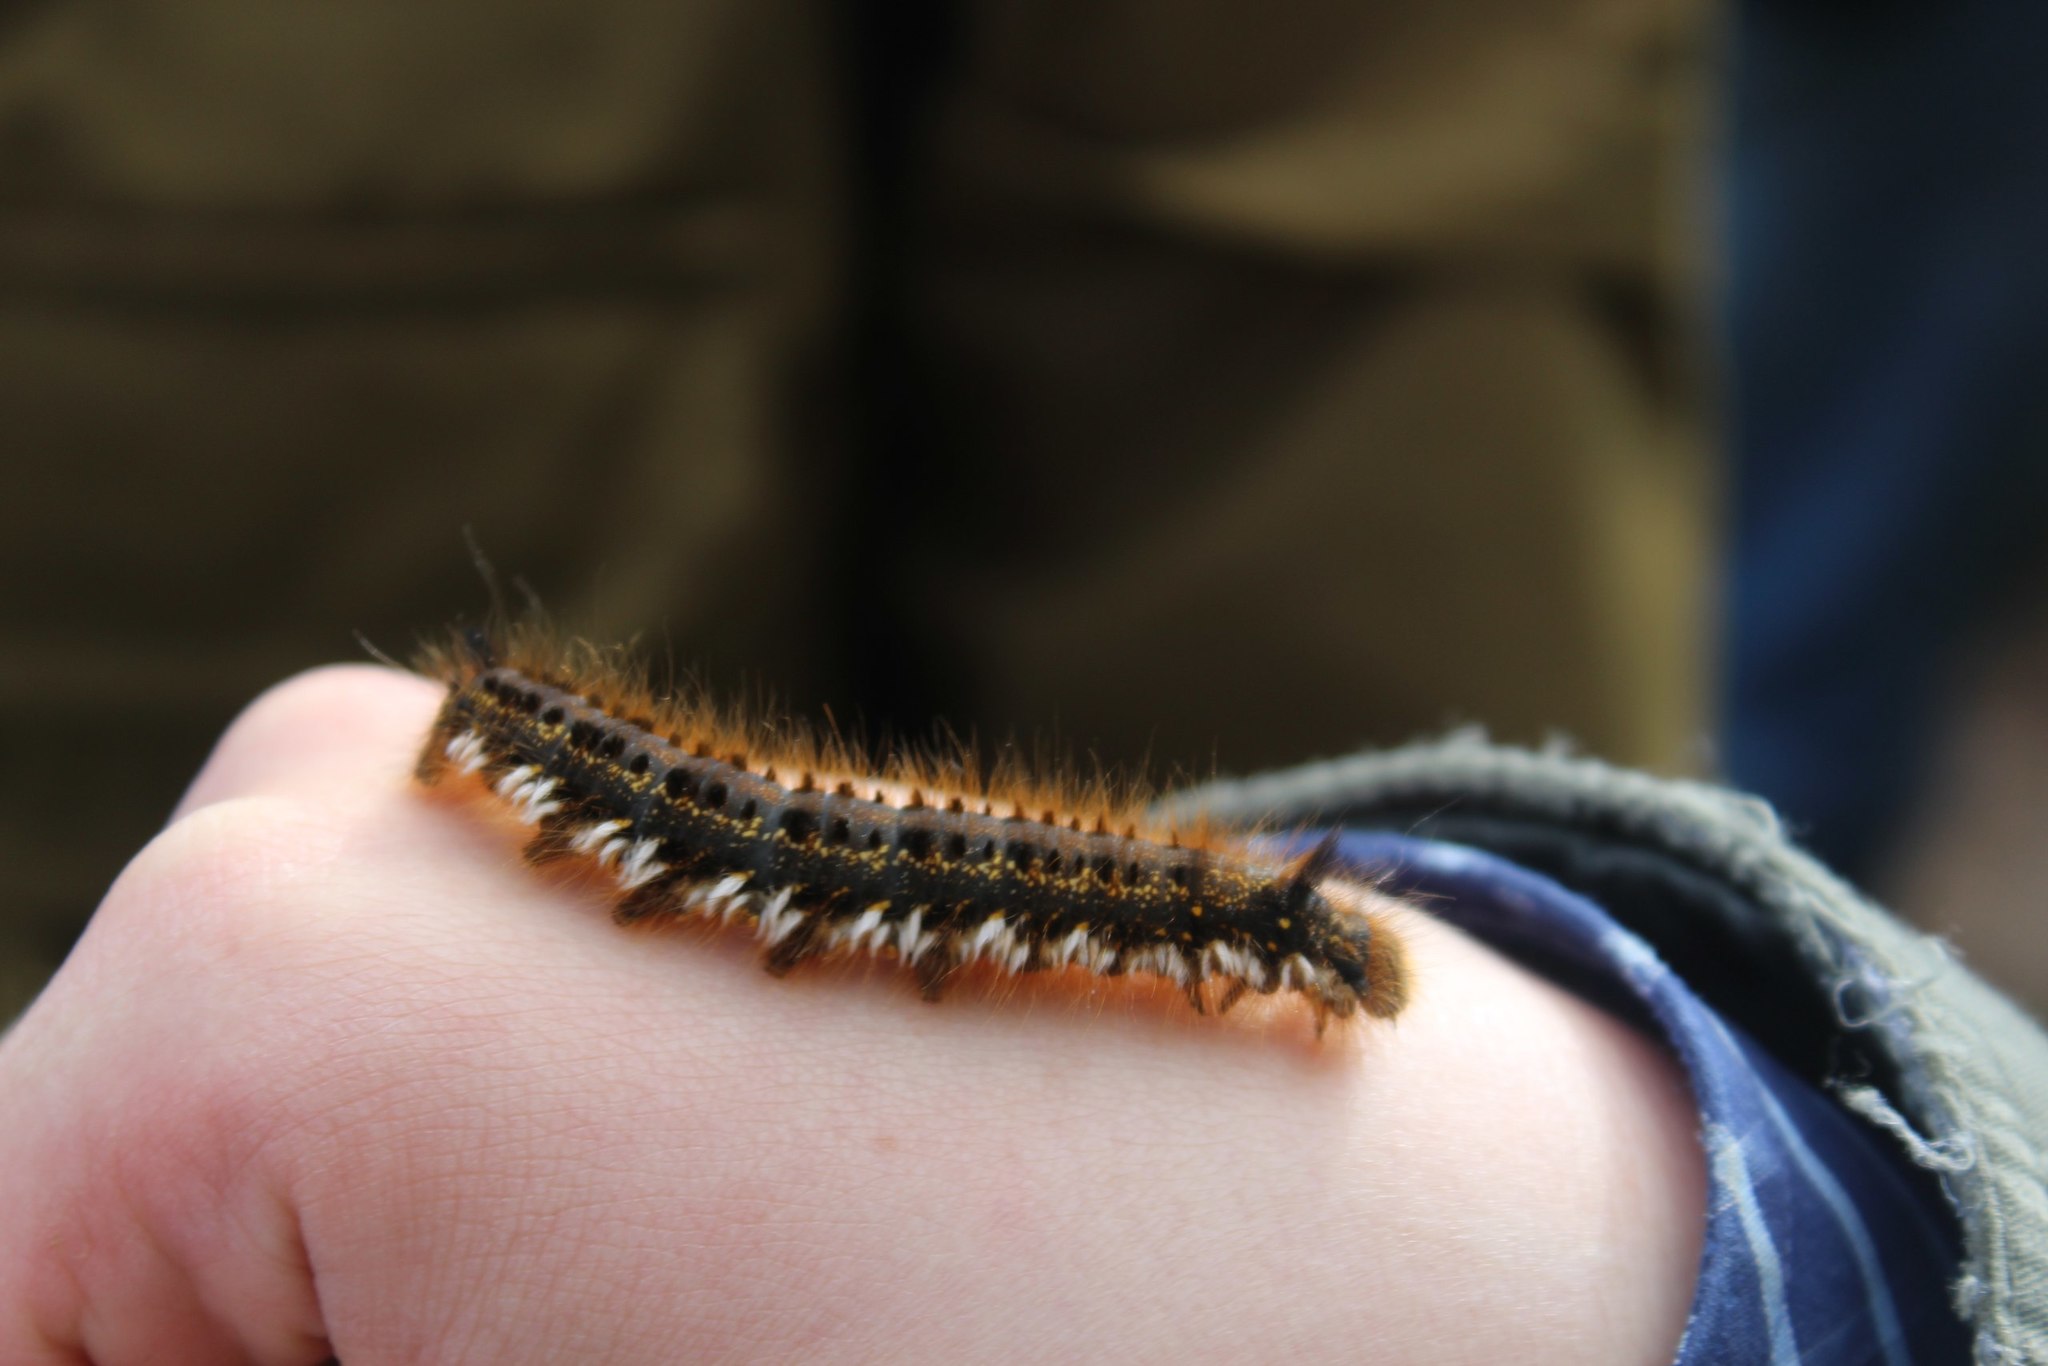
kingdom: Animalia
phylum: Arthropoda
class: Insecta
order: Lepidoptera
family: Lasiocampidae
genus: Euthrix
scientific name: Euthrix potatoria
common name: Drinker
